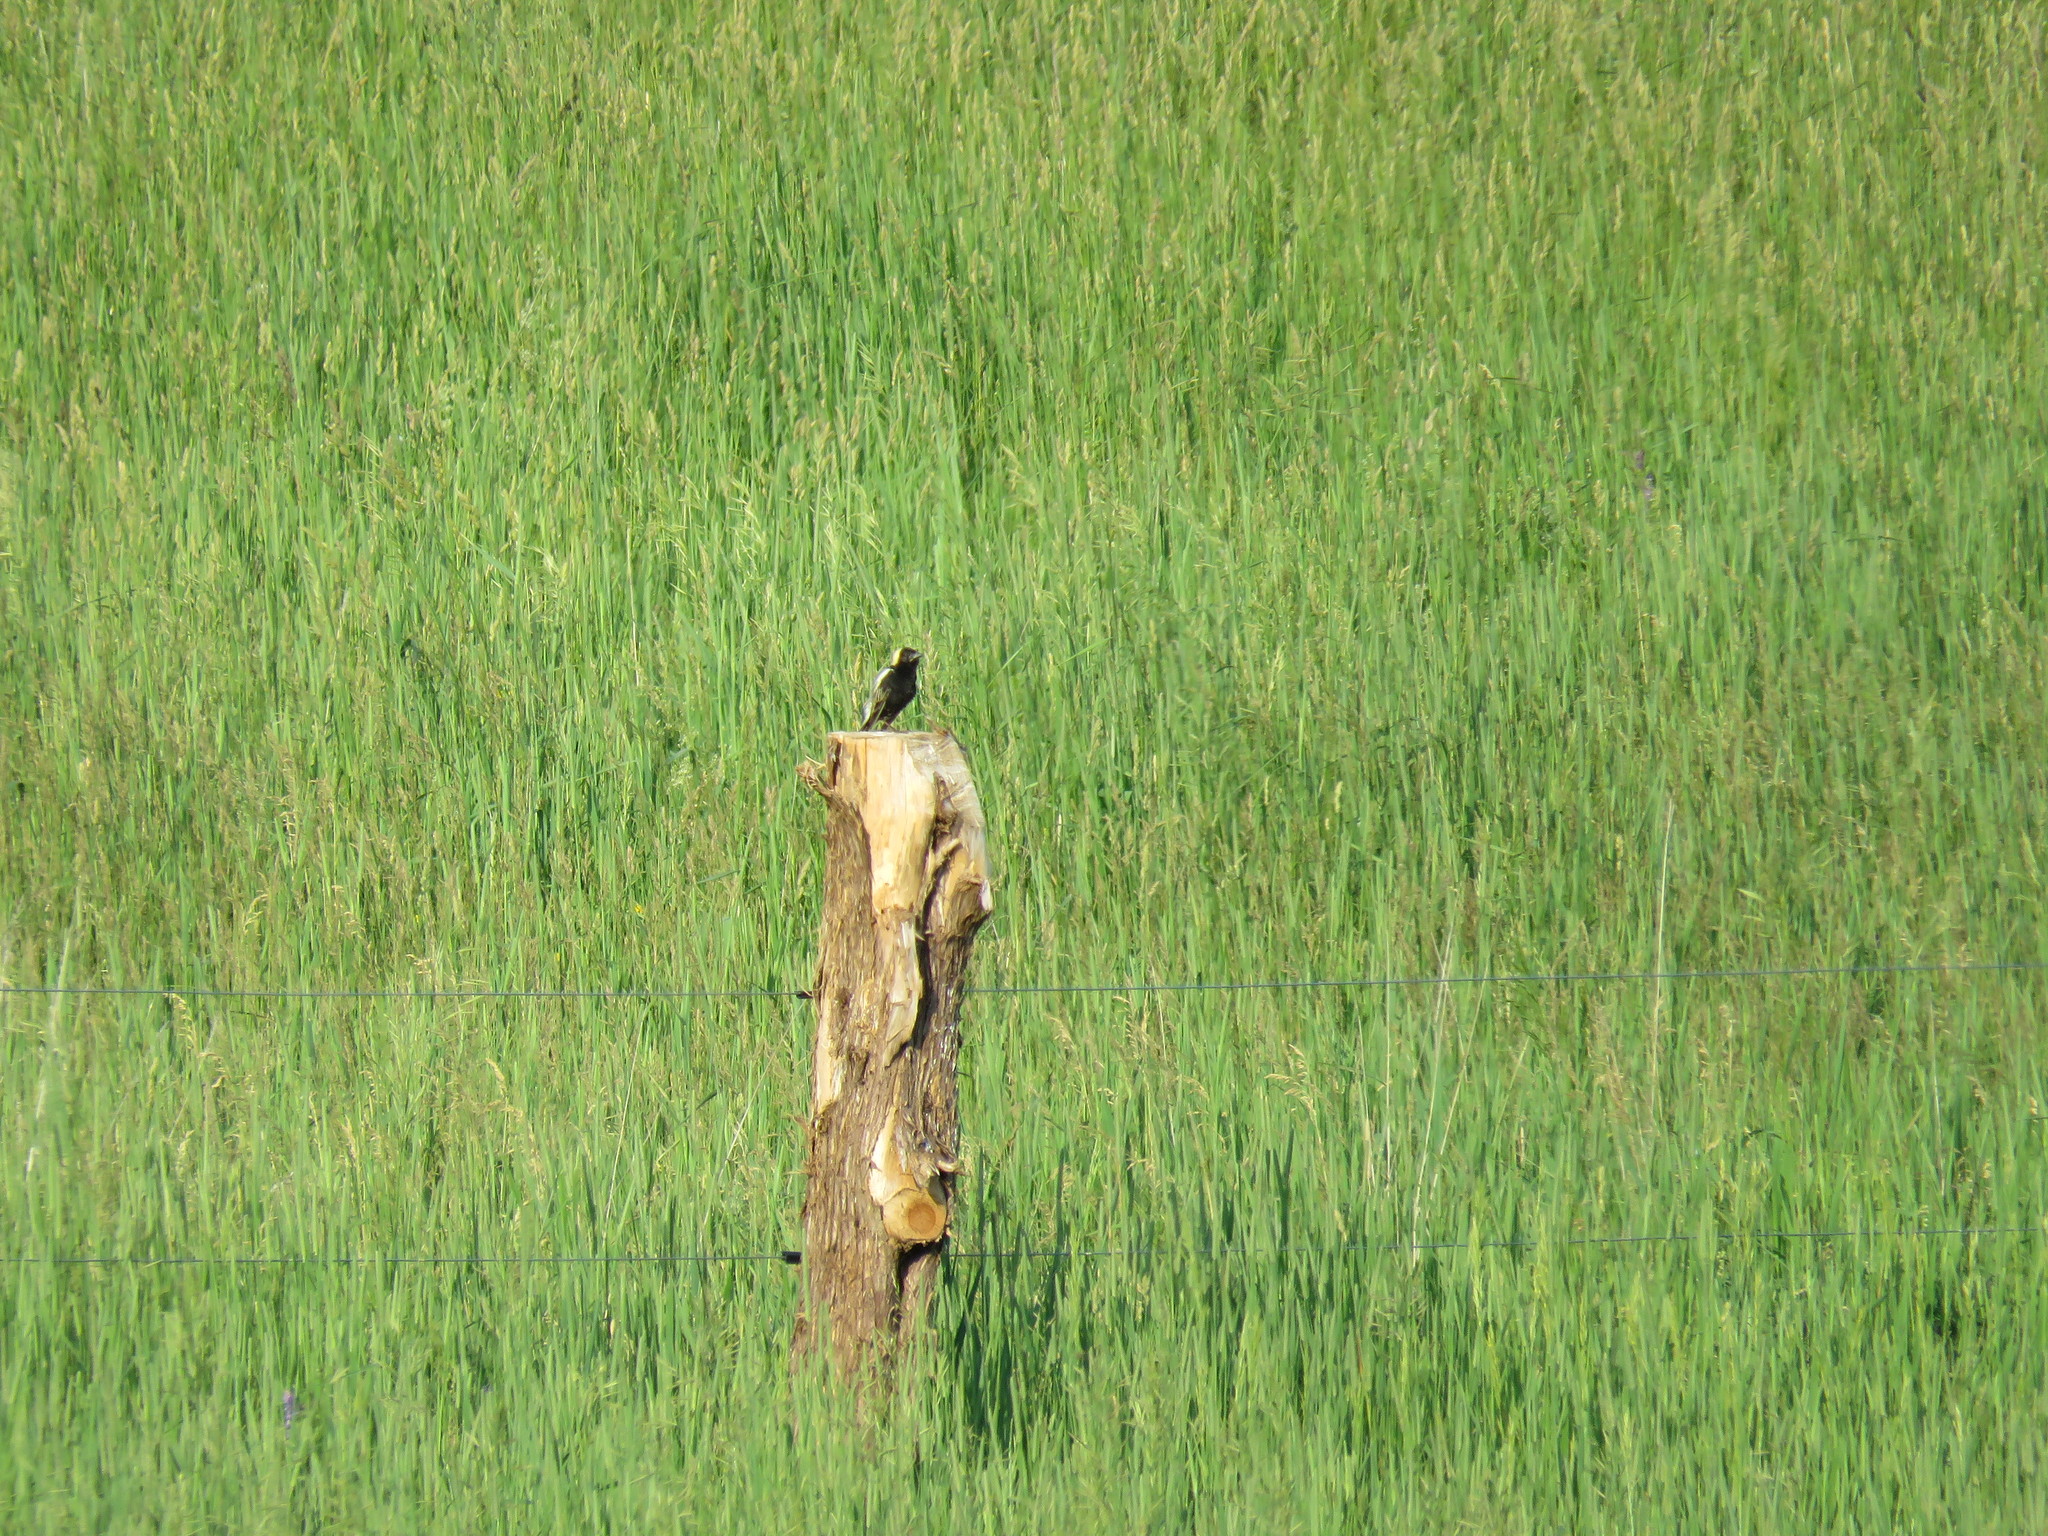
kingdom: Animalia
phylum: Chordata
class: Aves
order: Passeriformes
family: Icteridae
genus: Dolichonyx
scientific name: Dolichonyx oryzivorus
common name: Bobolink
